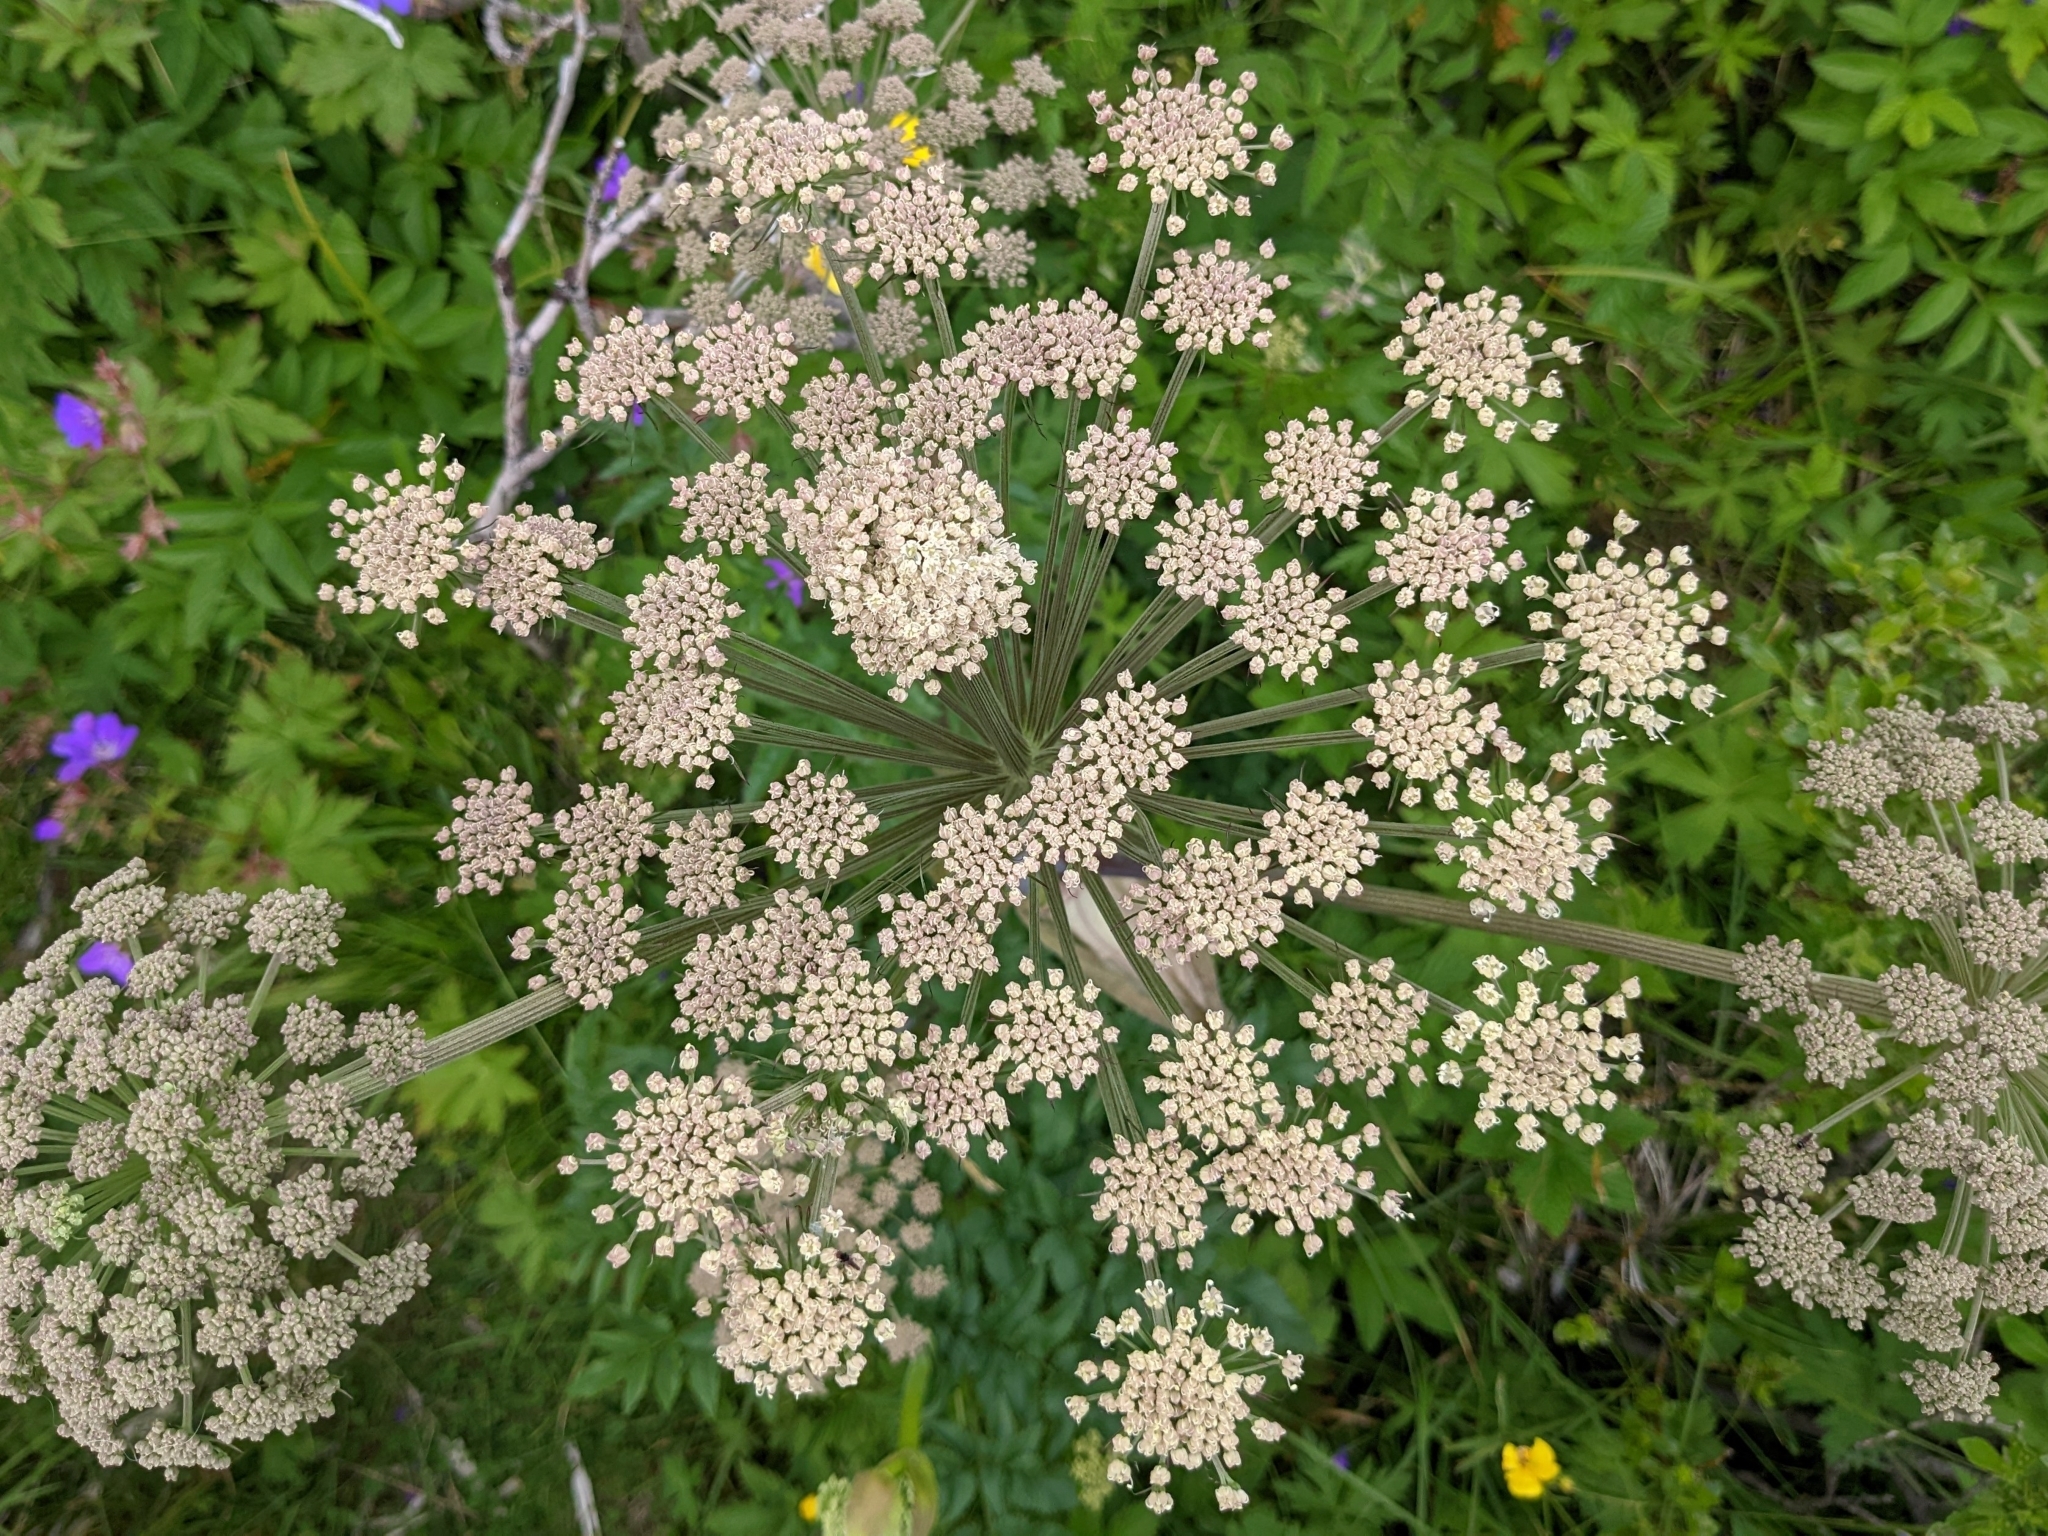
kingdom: Plantae
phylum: Tracheophyta
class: Magnoliopsida
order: Apiales
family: Apiaceae
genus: Angelica
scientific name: Angelica sylvestris
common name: Wild angelica
